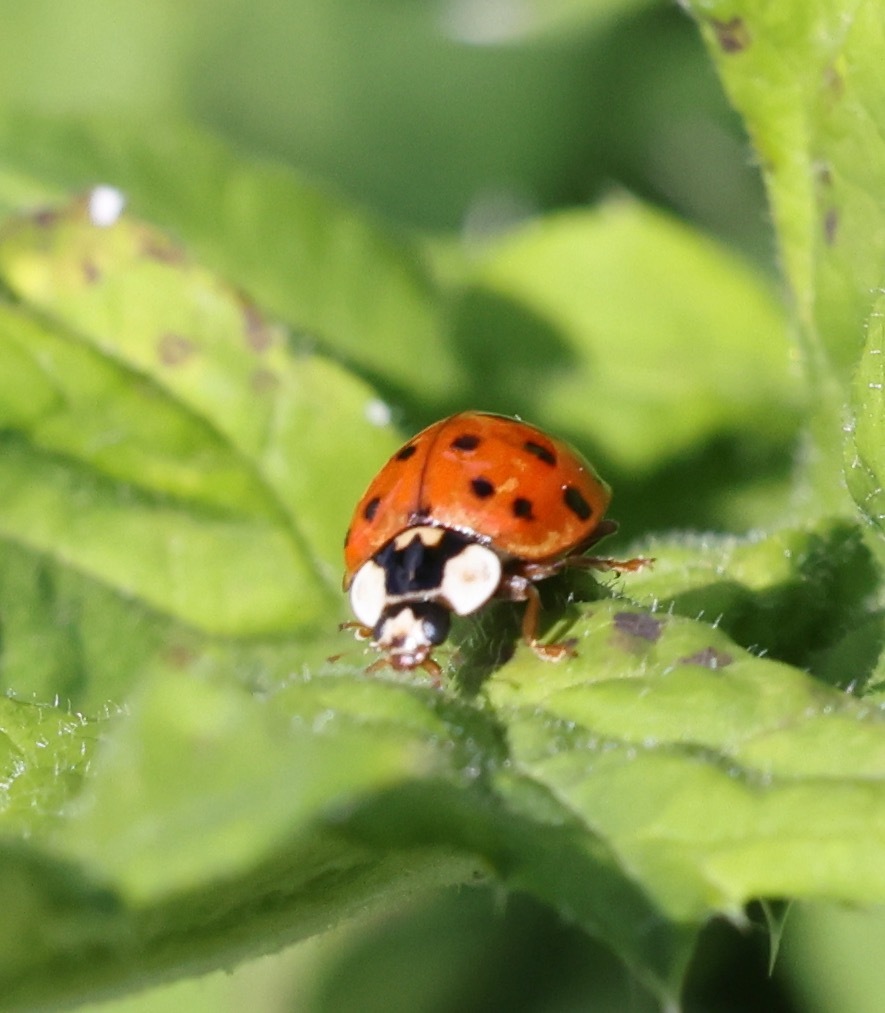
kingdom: Animalia
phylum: Arthropoda
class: Insecta
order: Coleoptera
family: Coccinellidae
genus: Harmonia
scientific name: Harmonia axyridis
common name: Harlequin ladybird
